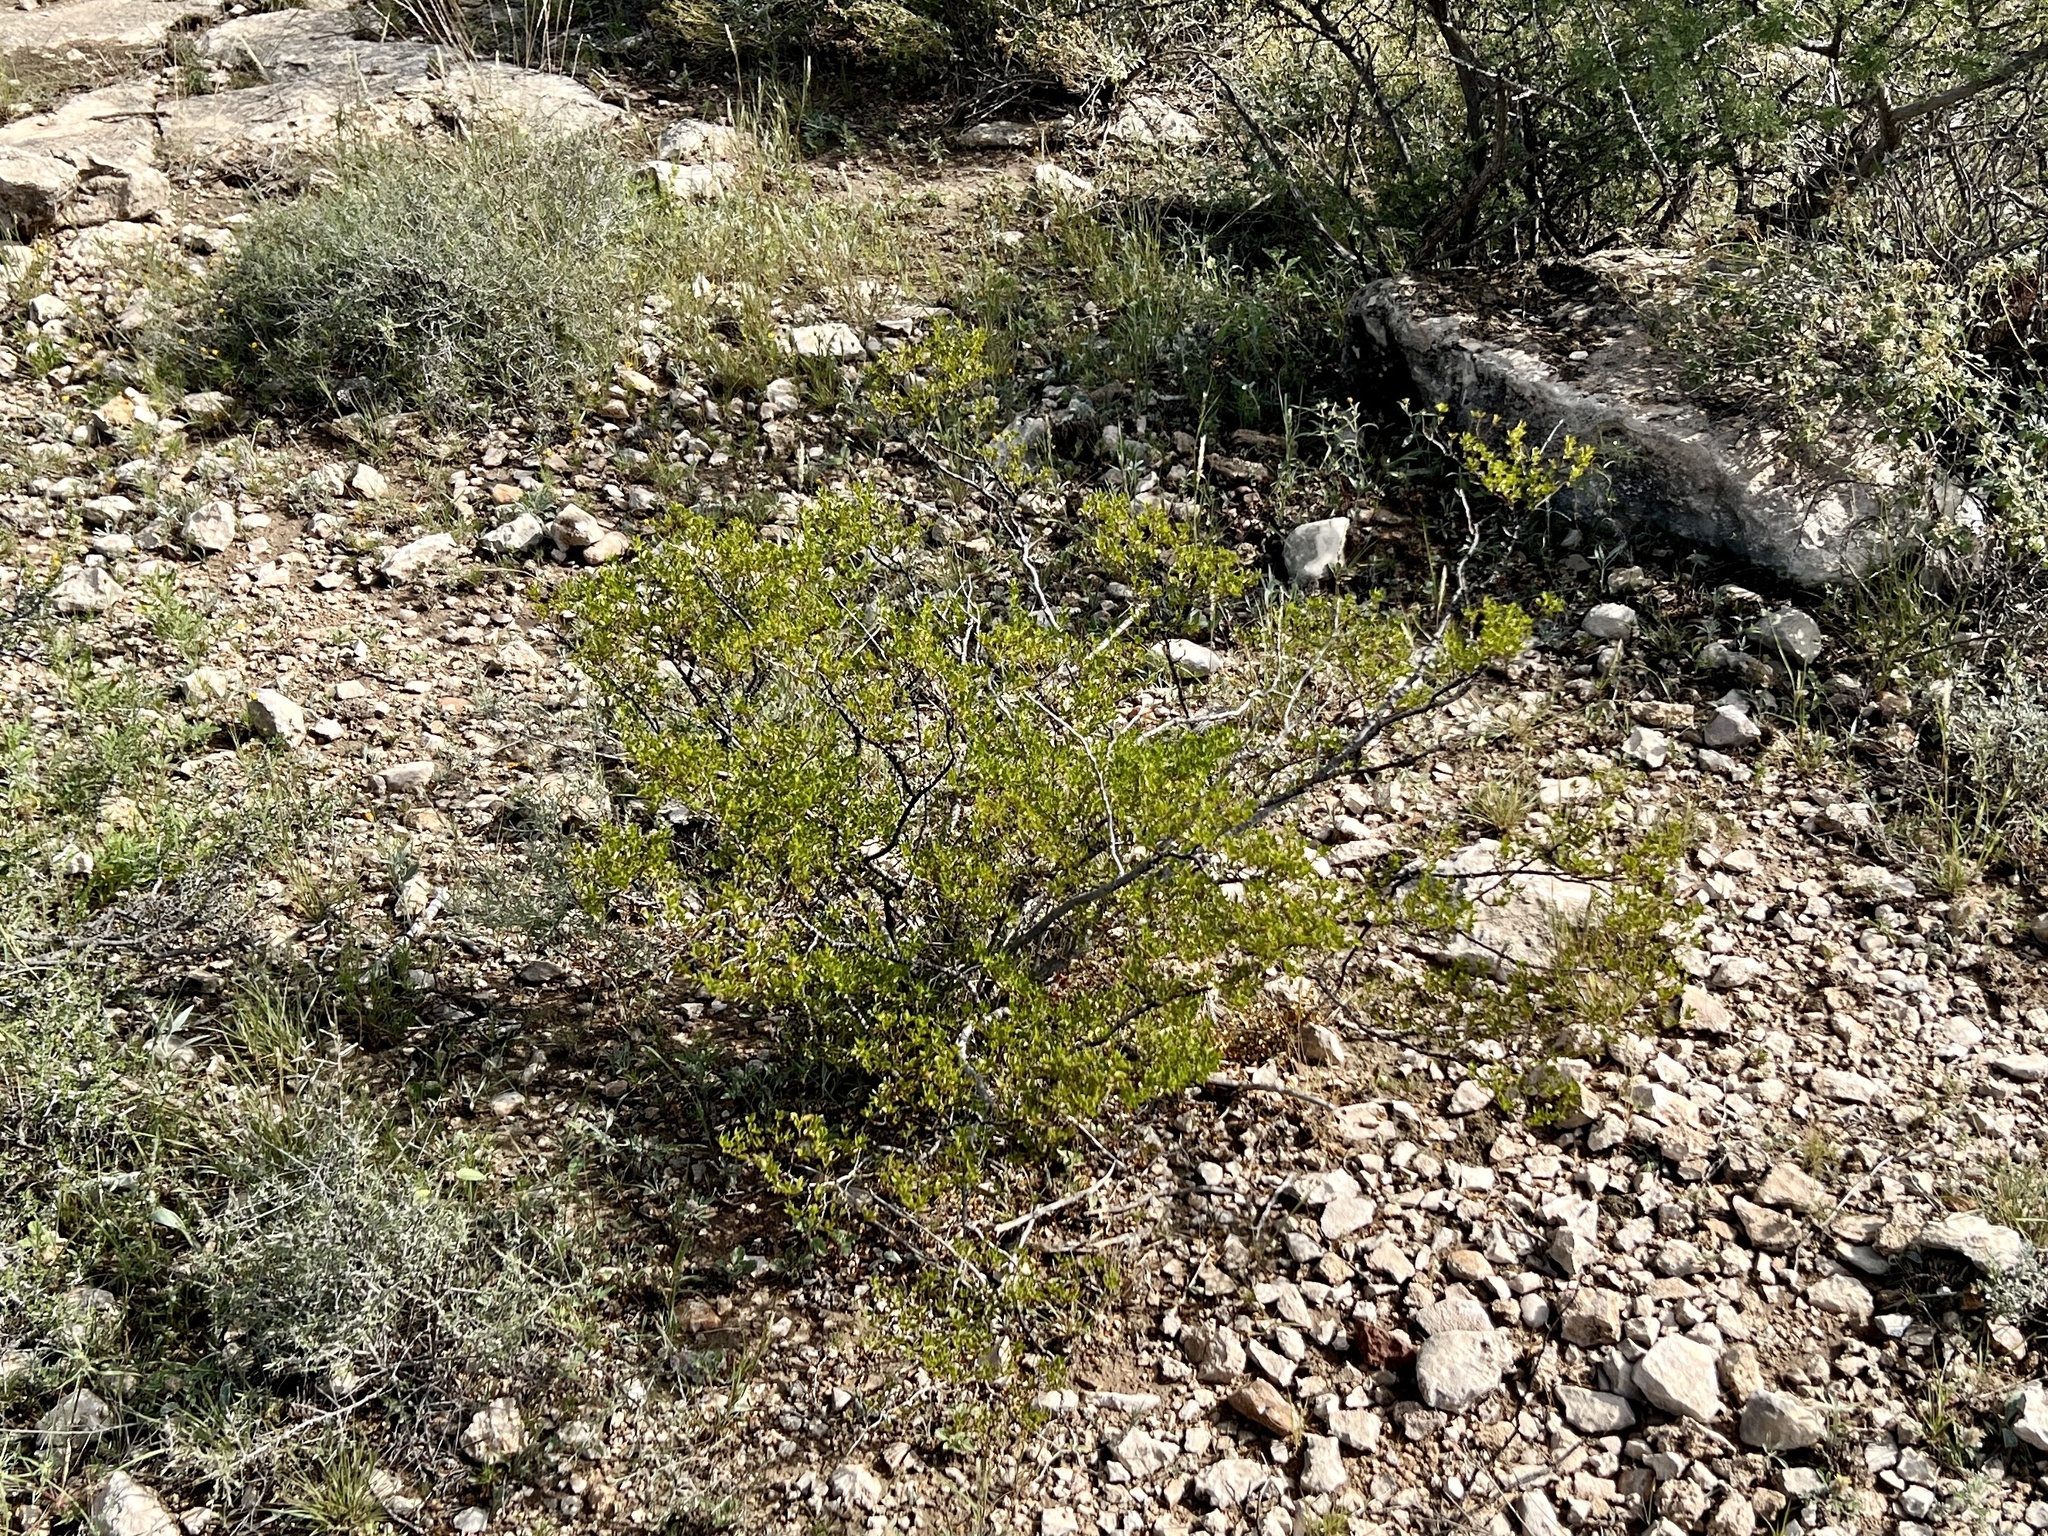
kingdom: Plantae
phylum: Tracheophyta
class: Magnoliopsida
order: Zygophyllales
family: Zygophyllaceae
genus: Larrea
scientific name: Larrea tridentata
